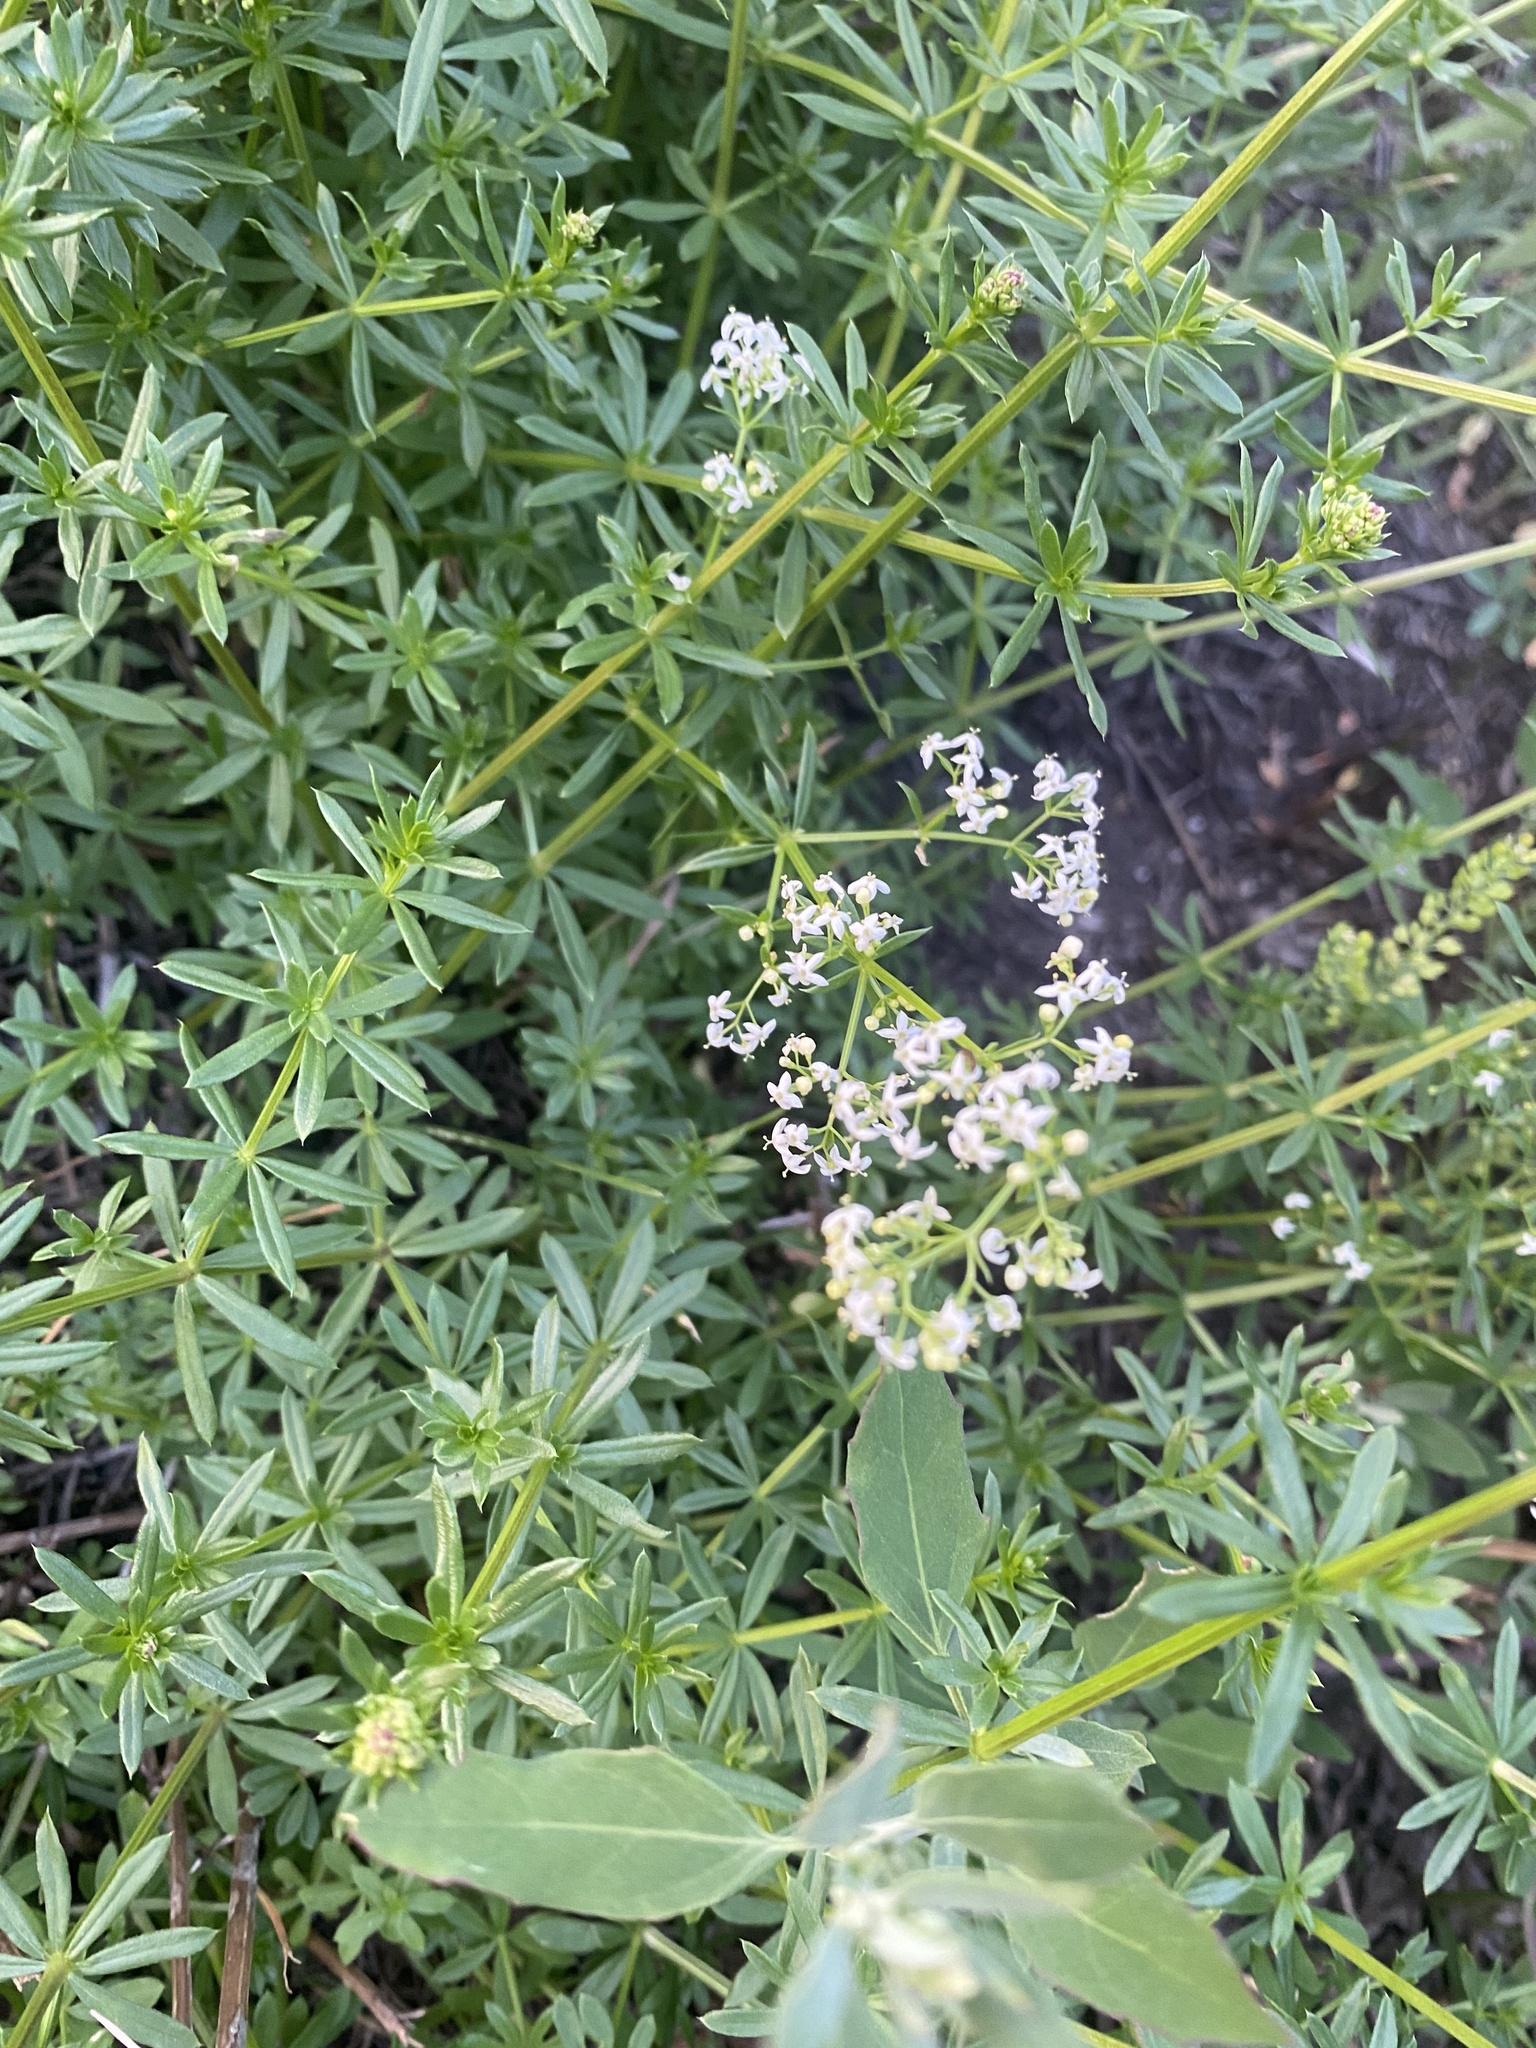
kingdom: Plantae
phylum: Tracheophyta
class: Magnoliopsida
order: Gentianales
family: Rubiaceae
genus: Galium
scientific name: Galium mollugo
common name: Hedge bedstraw
